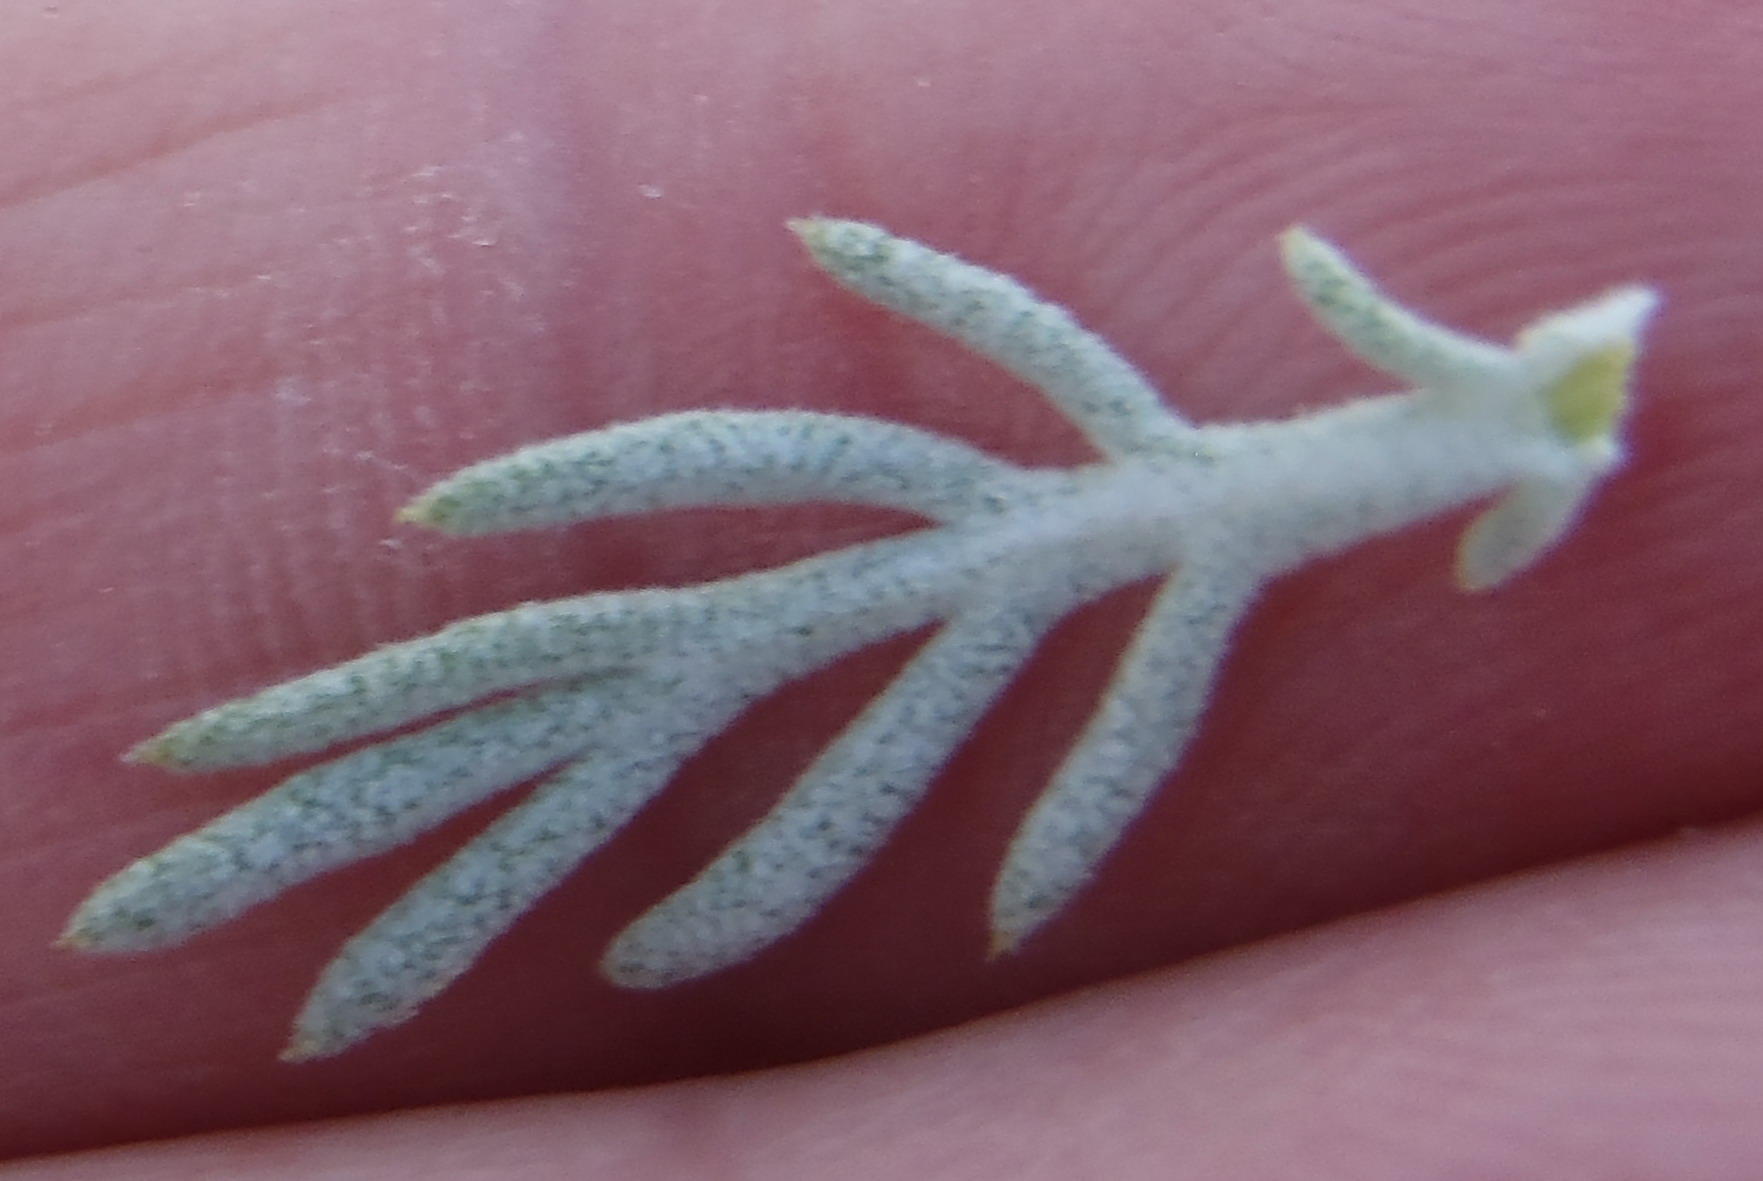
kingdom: Plantae
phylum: Tracheophyta
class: Magnoliopsida
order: Asterales
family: Asteraceae
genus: Athanasia
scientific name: Athanasia pinnata
